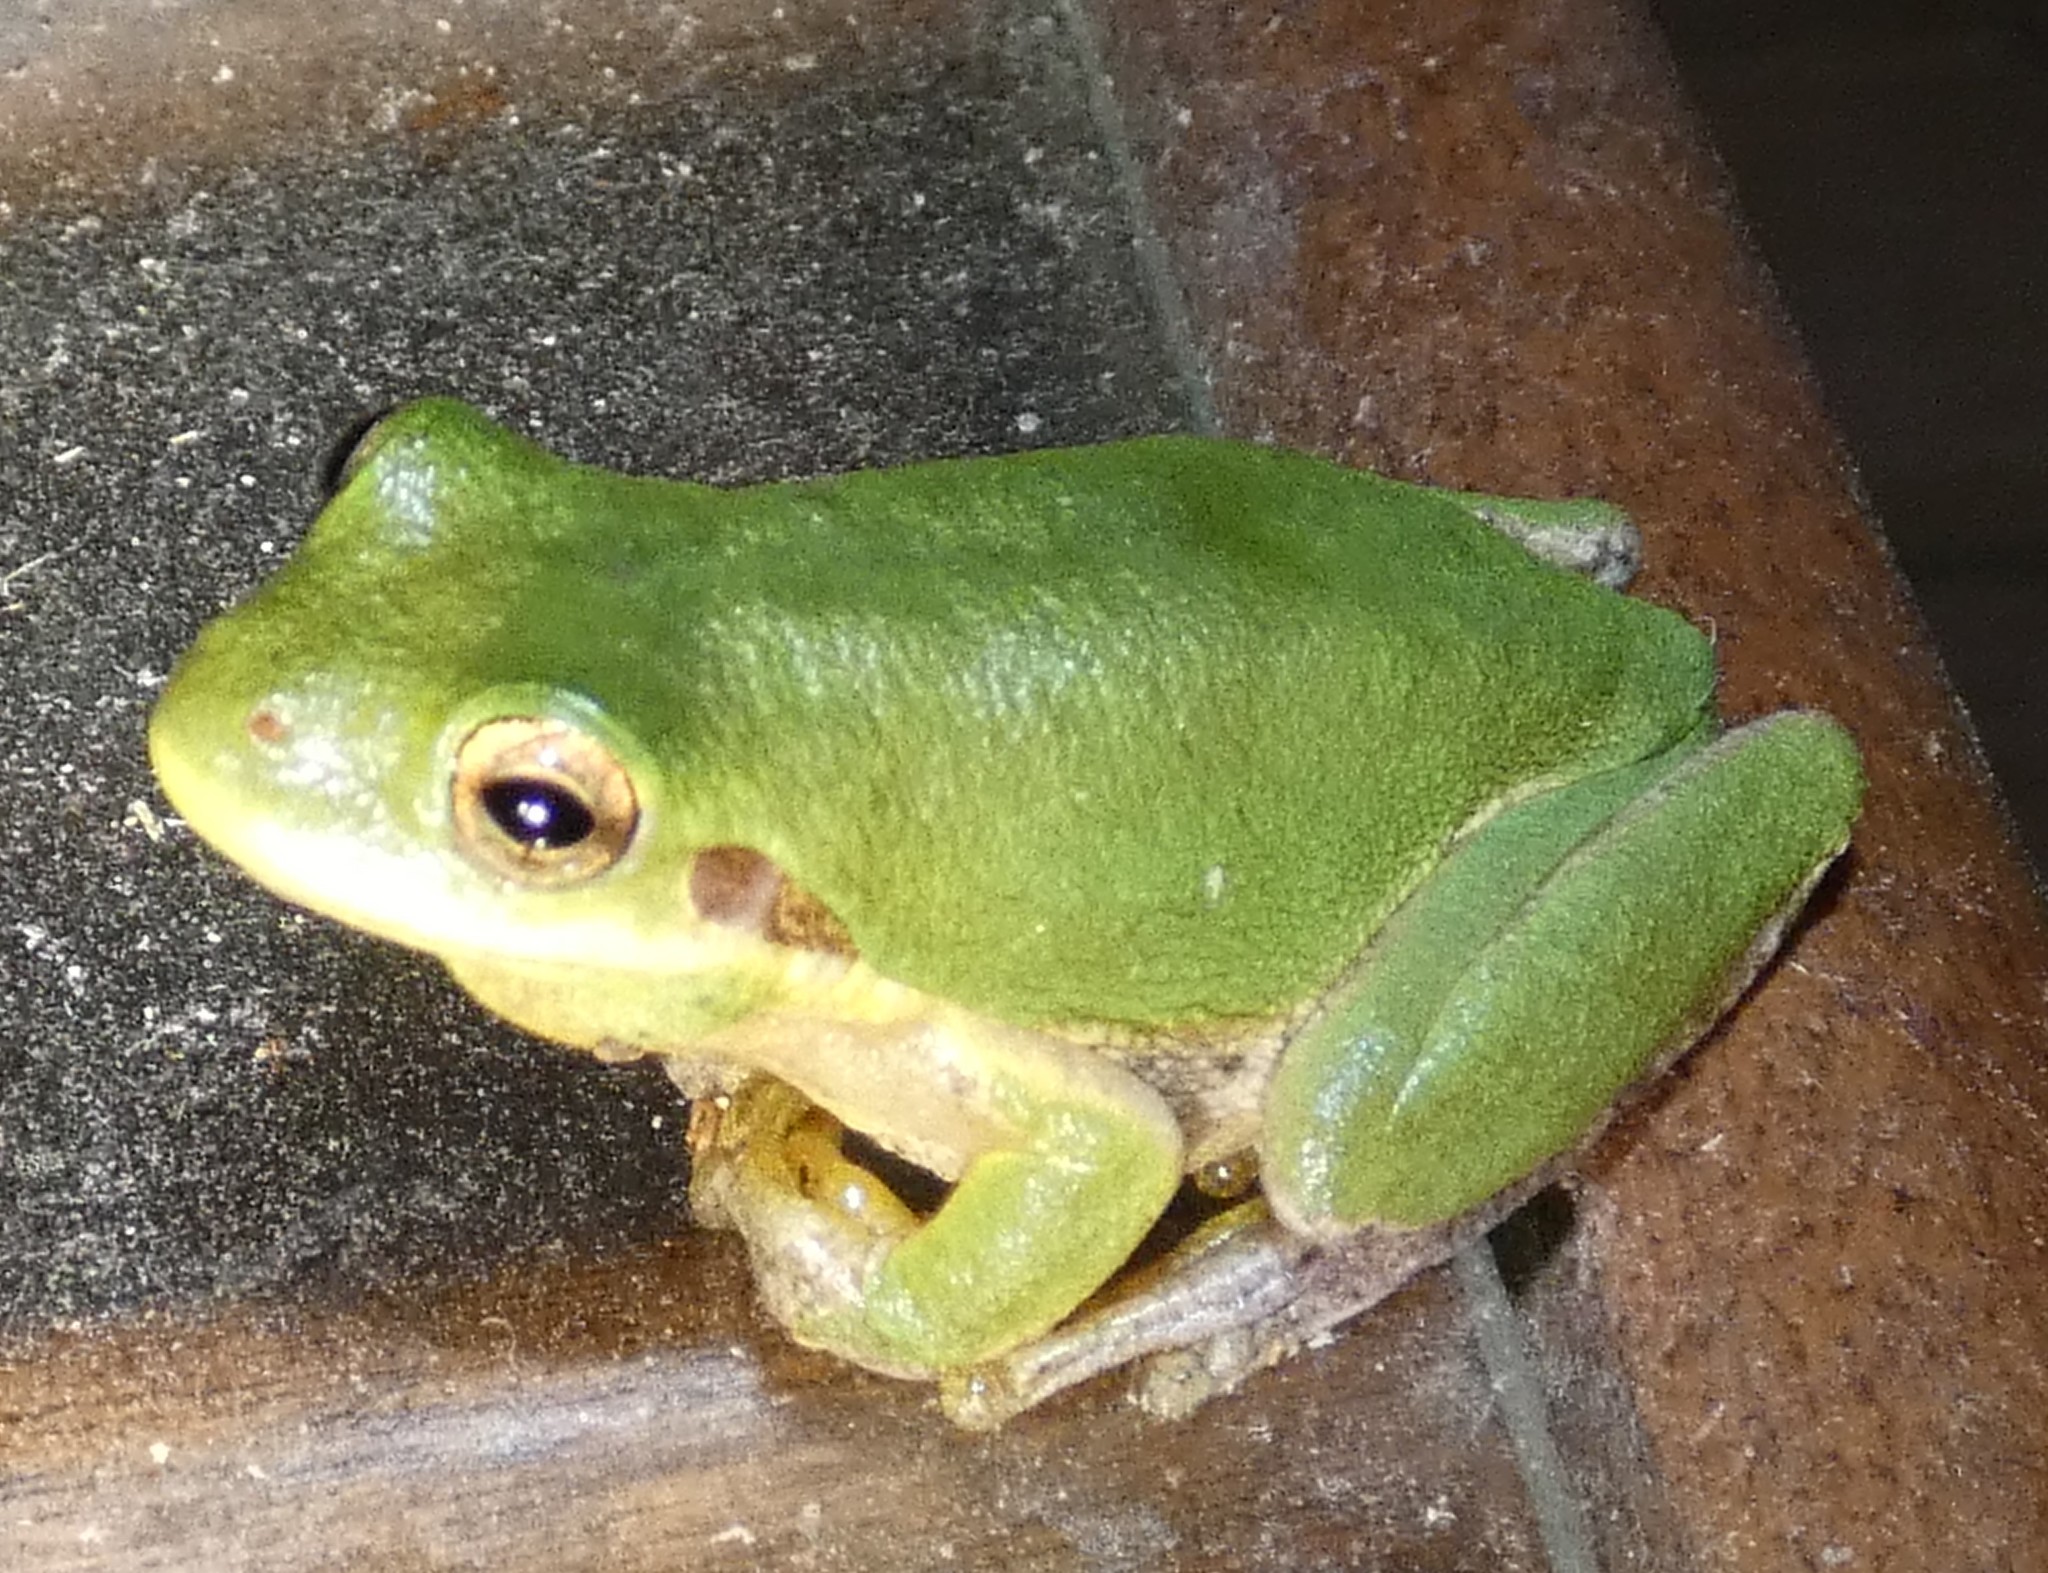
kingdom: Animalia
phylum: Chordata
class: Amphibia
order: Anura
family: Hylidae
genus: Dryophytes
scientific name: Dryophytes squirellus
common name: Squirrel treefrog
